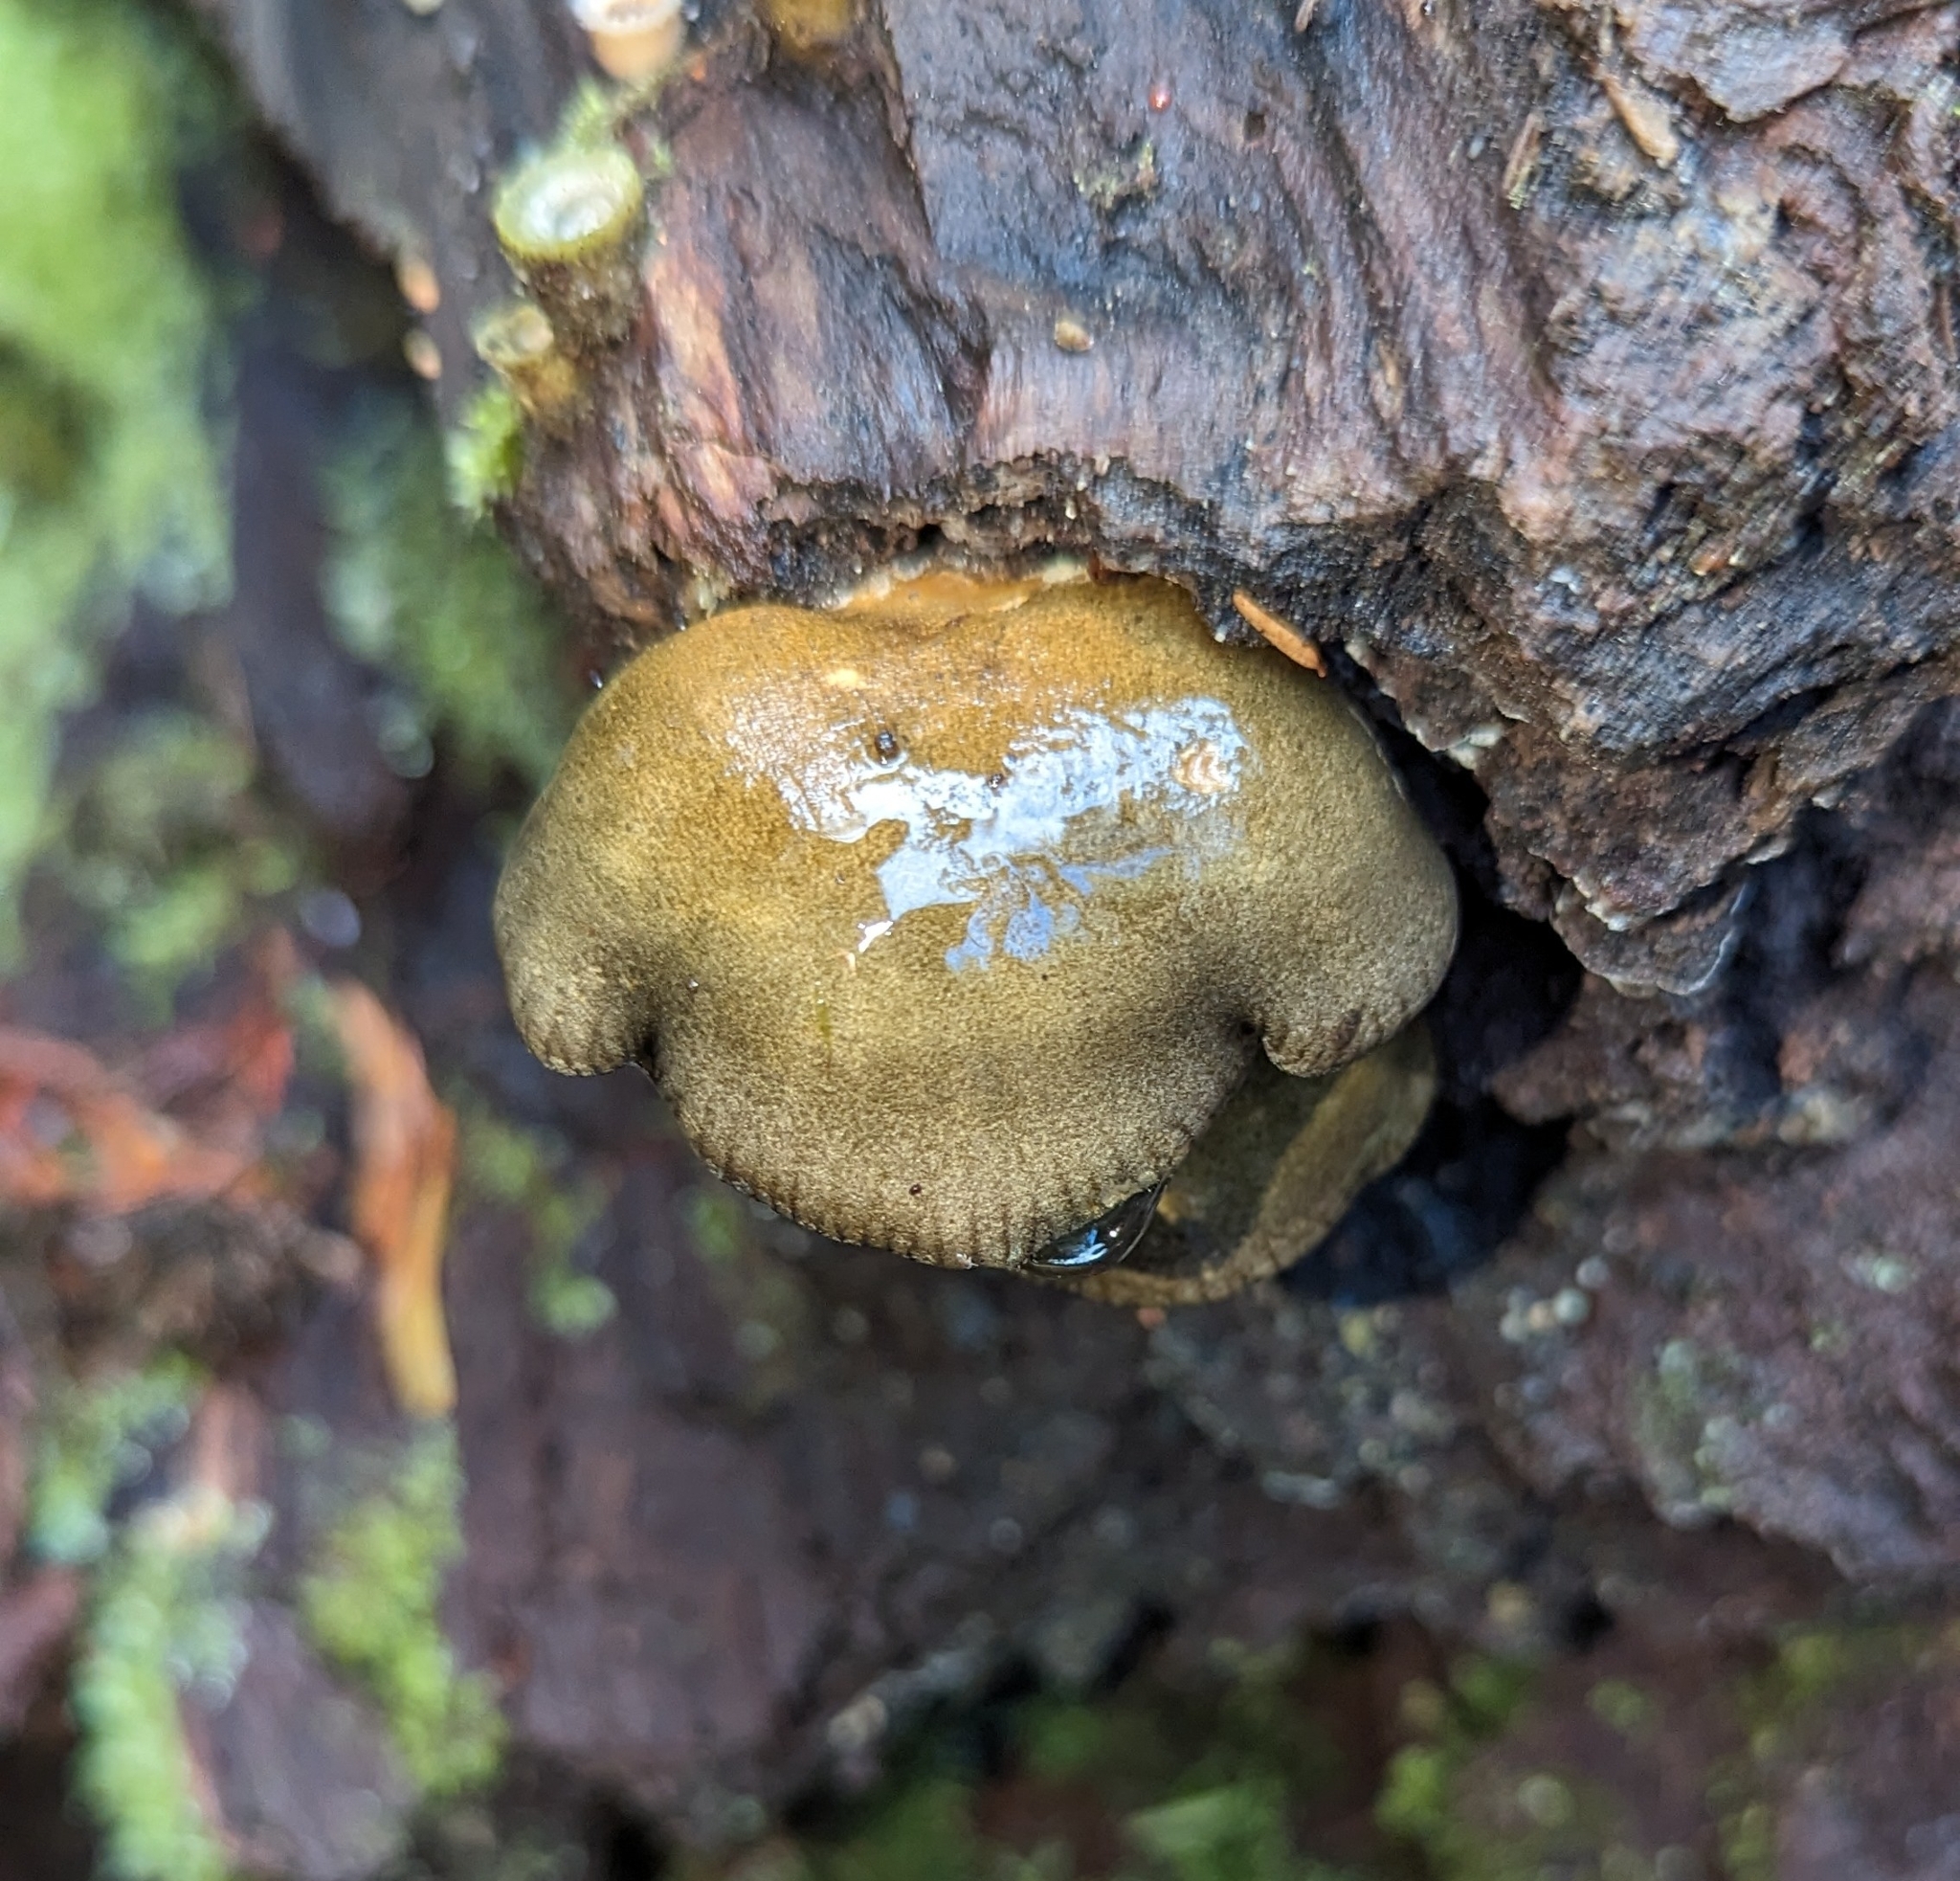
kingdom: Fungi
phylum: Basidiomycota
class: Agaricomycetes
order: Agaricales
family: Sarcomyxaceae
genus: Sarcomyxa
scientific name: Sarcomyxa serotina
